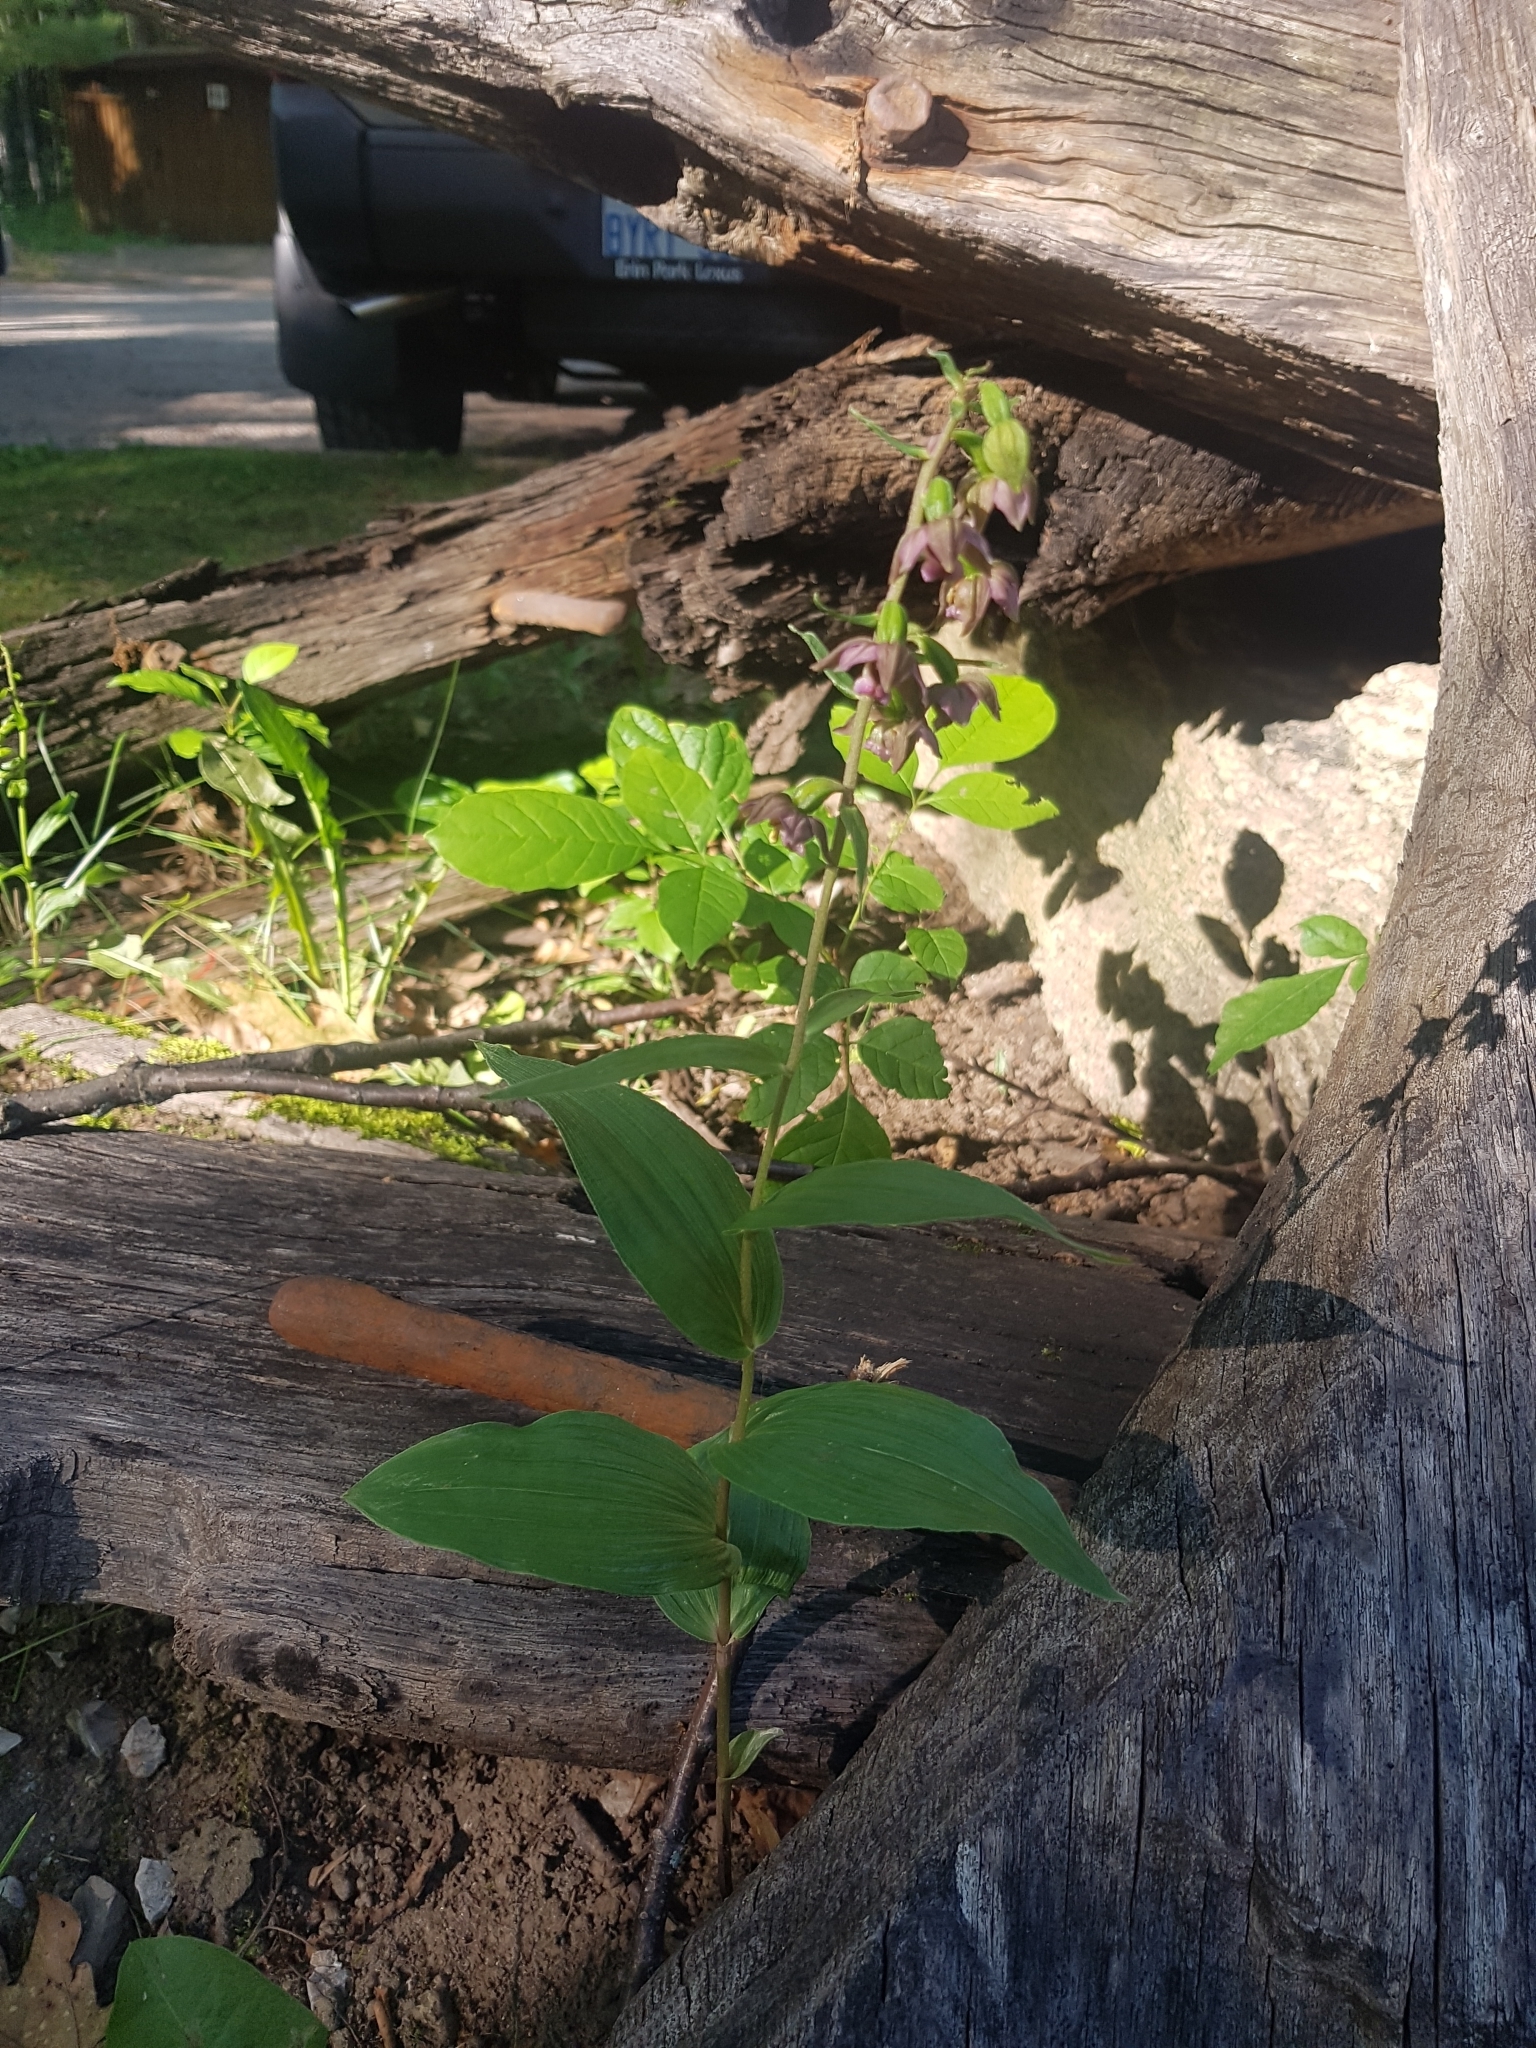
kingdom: Plantae
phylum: Tracheophyta
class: Liliopsida
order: Asparagales
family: Orchidaceae
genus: Epipactis
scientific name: Epipactis helleborine
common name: Broad-leaved helleborine
